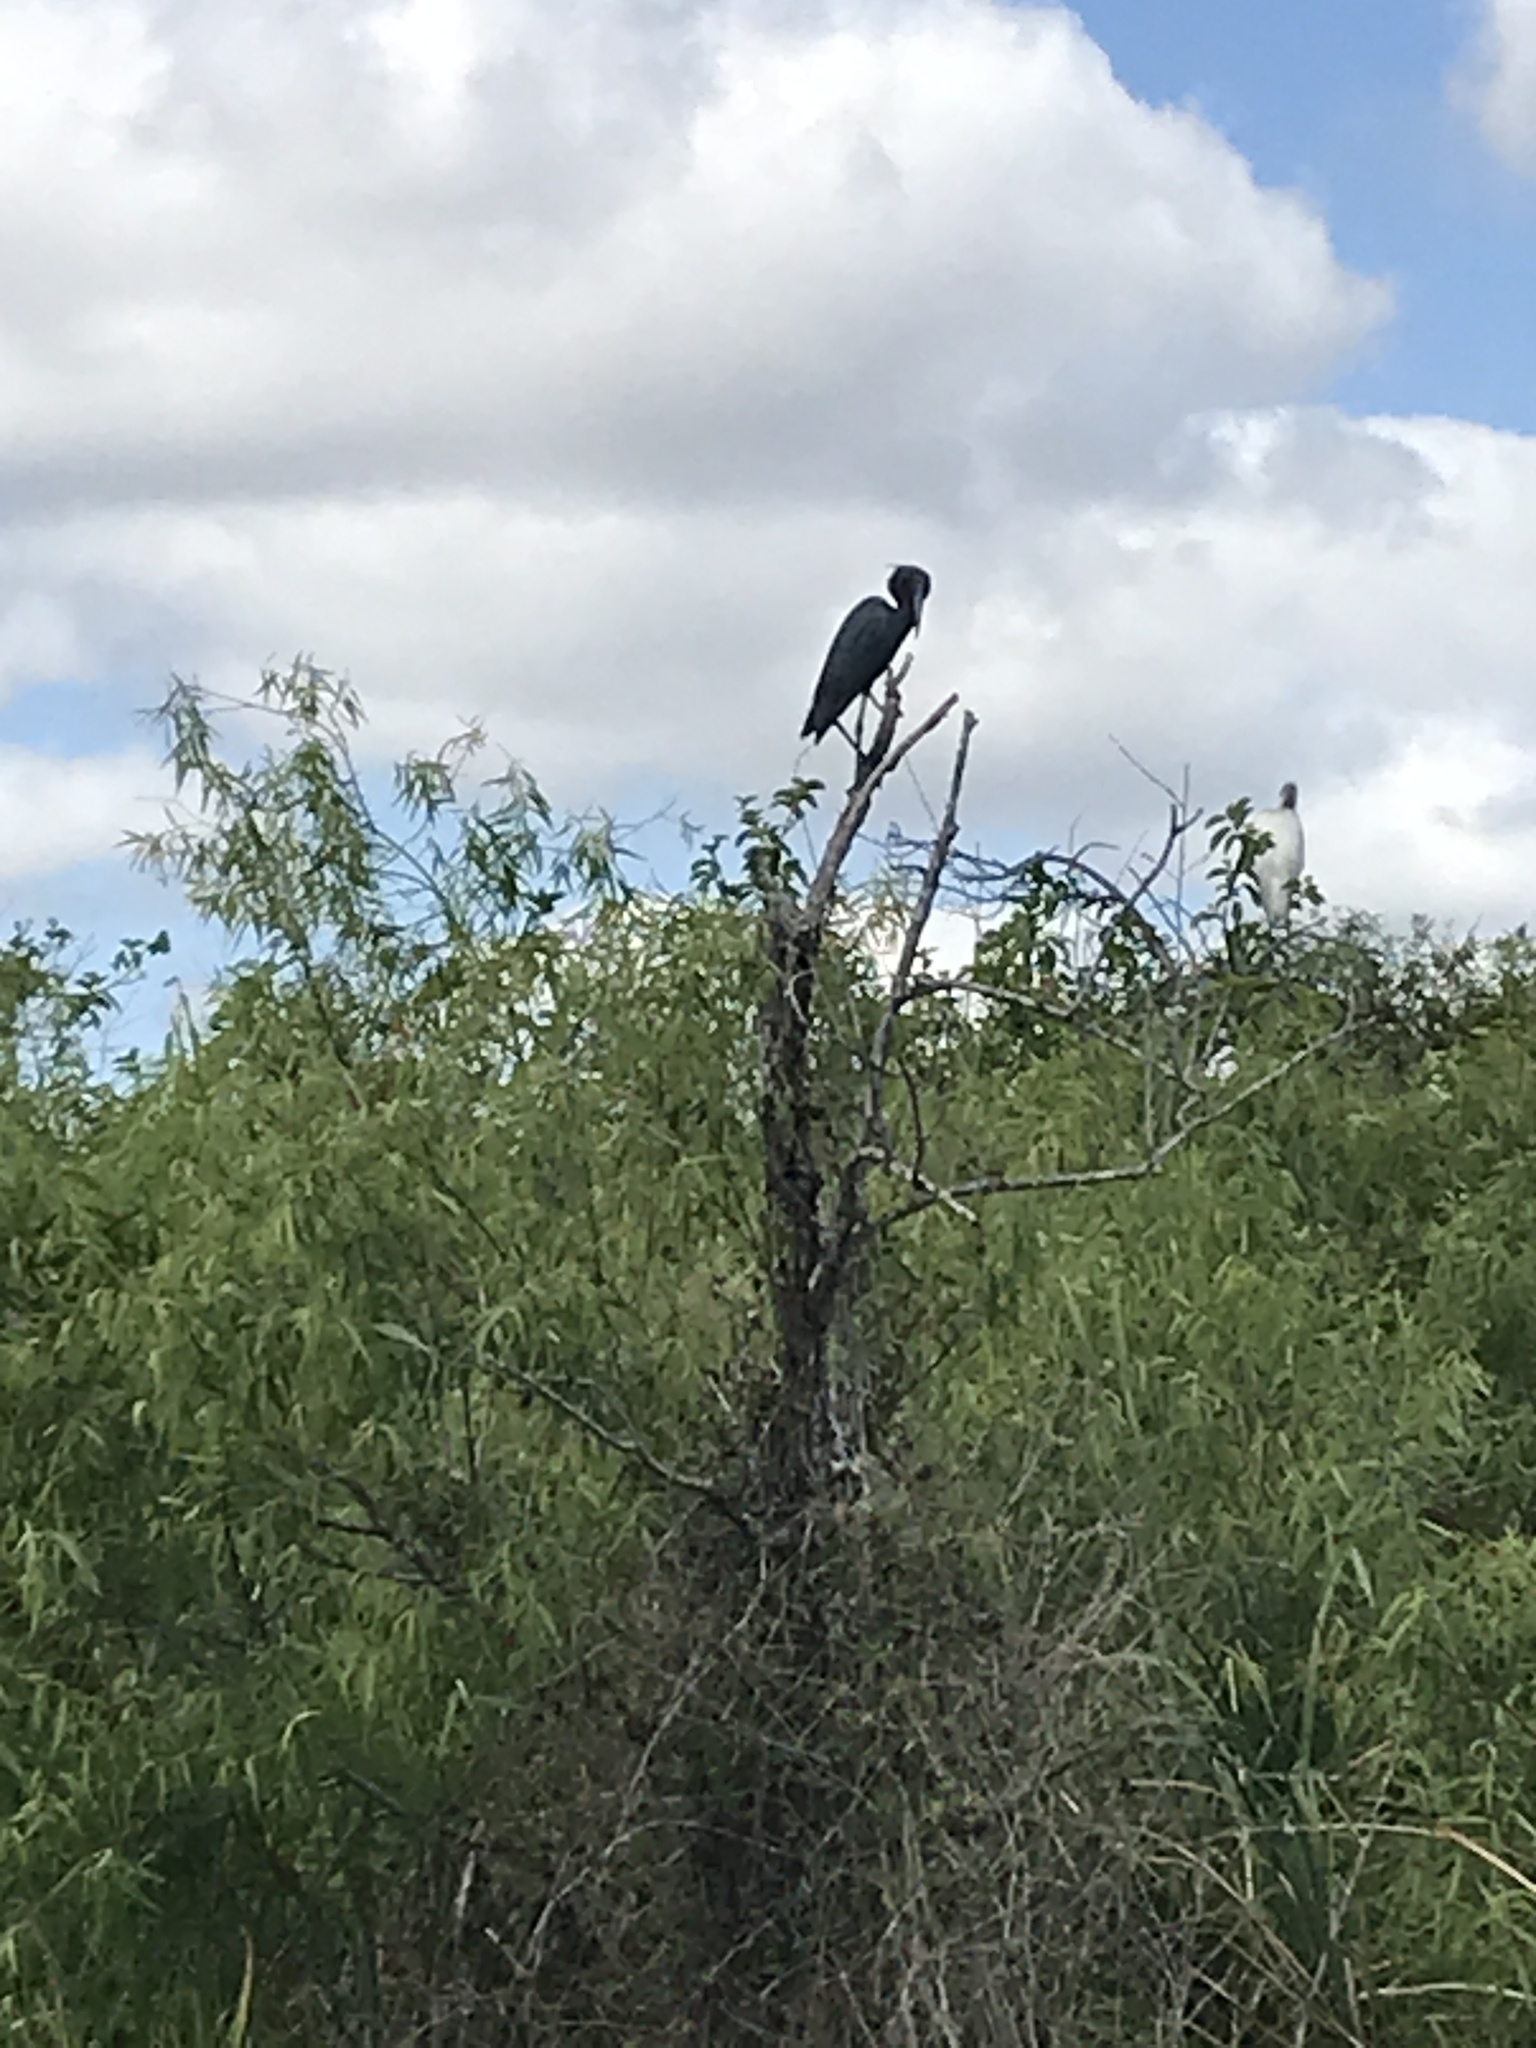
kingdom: Animalia
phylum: Chordata
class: Aves
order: Pelecaniformes
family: Ardeidae
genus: Egretta
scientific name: Egretta caerulea
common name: Little blue heron
